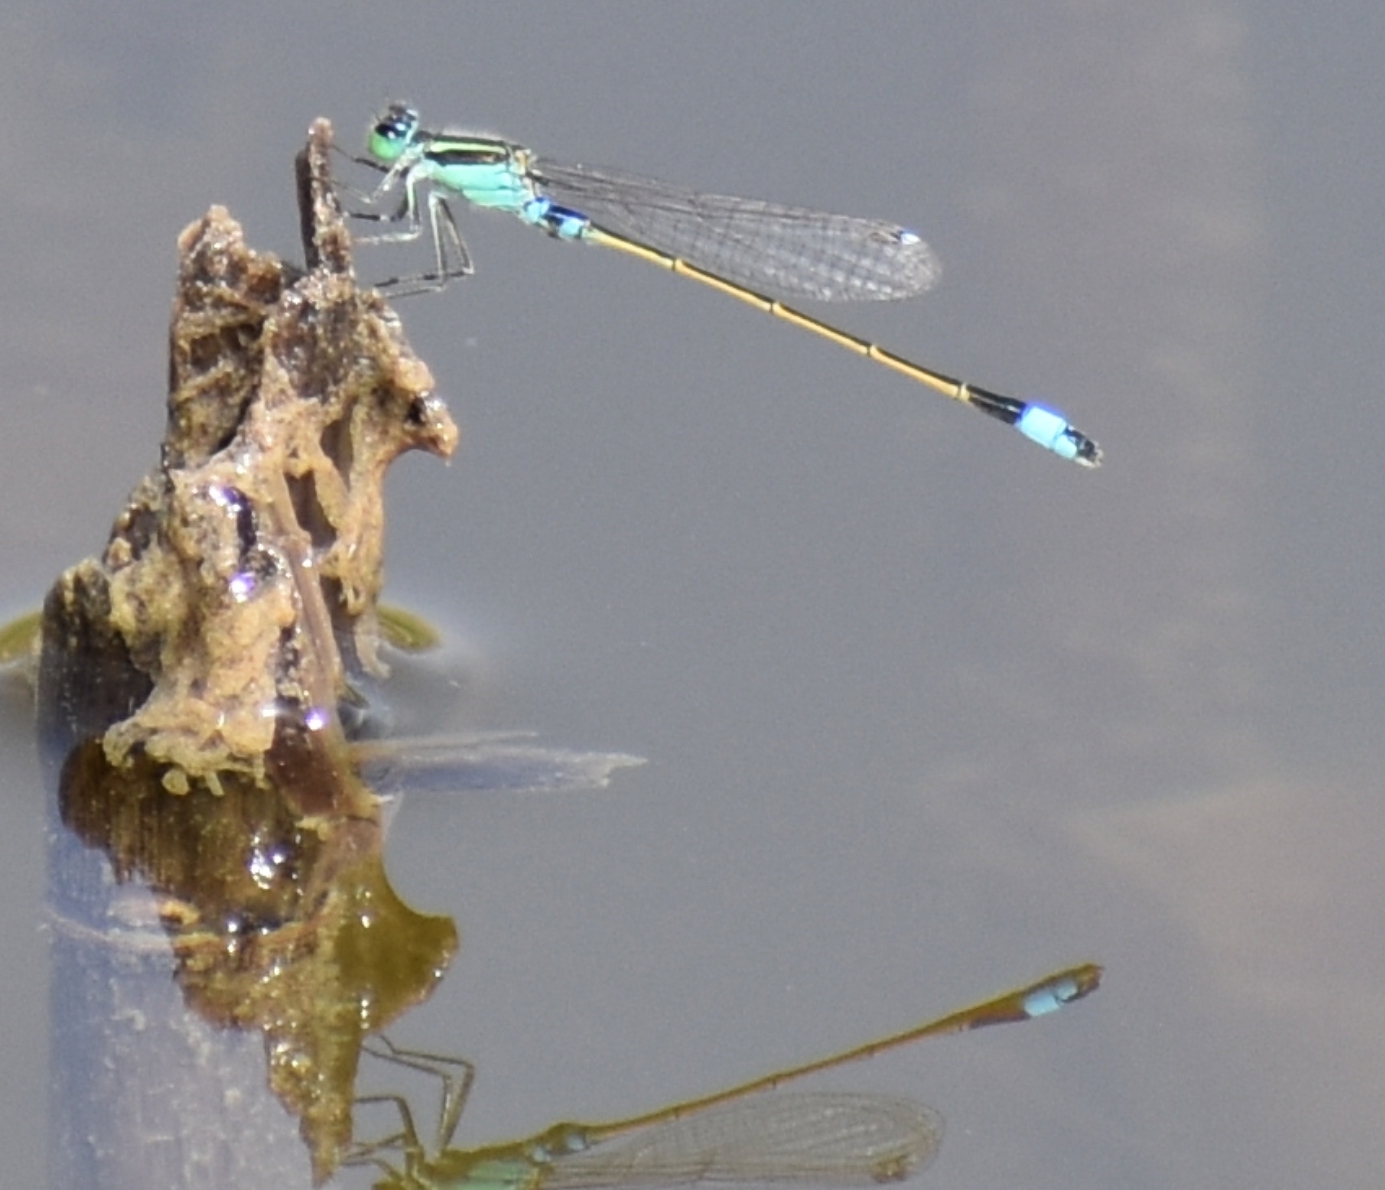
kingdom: Animalia
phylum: Arthropoda
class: Insecta
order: Odonata
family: Coenagrionidae
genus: Ischnura
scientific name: Ischnura senegalensis
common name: Tropical bluetail
